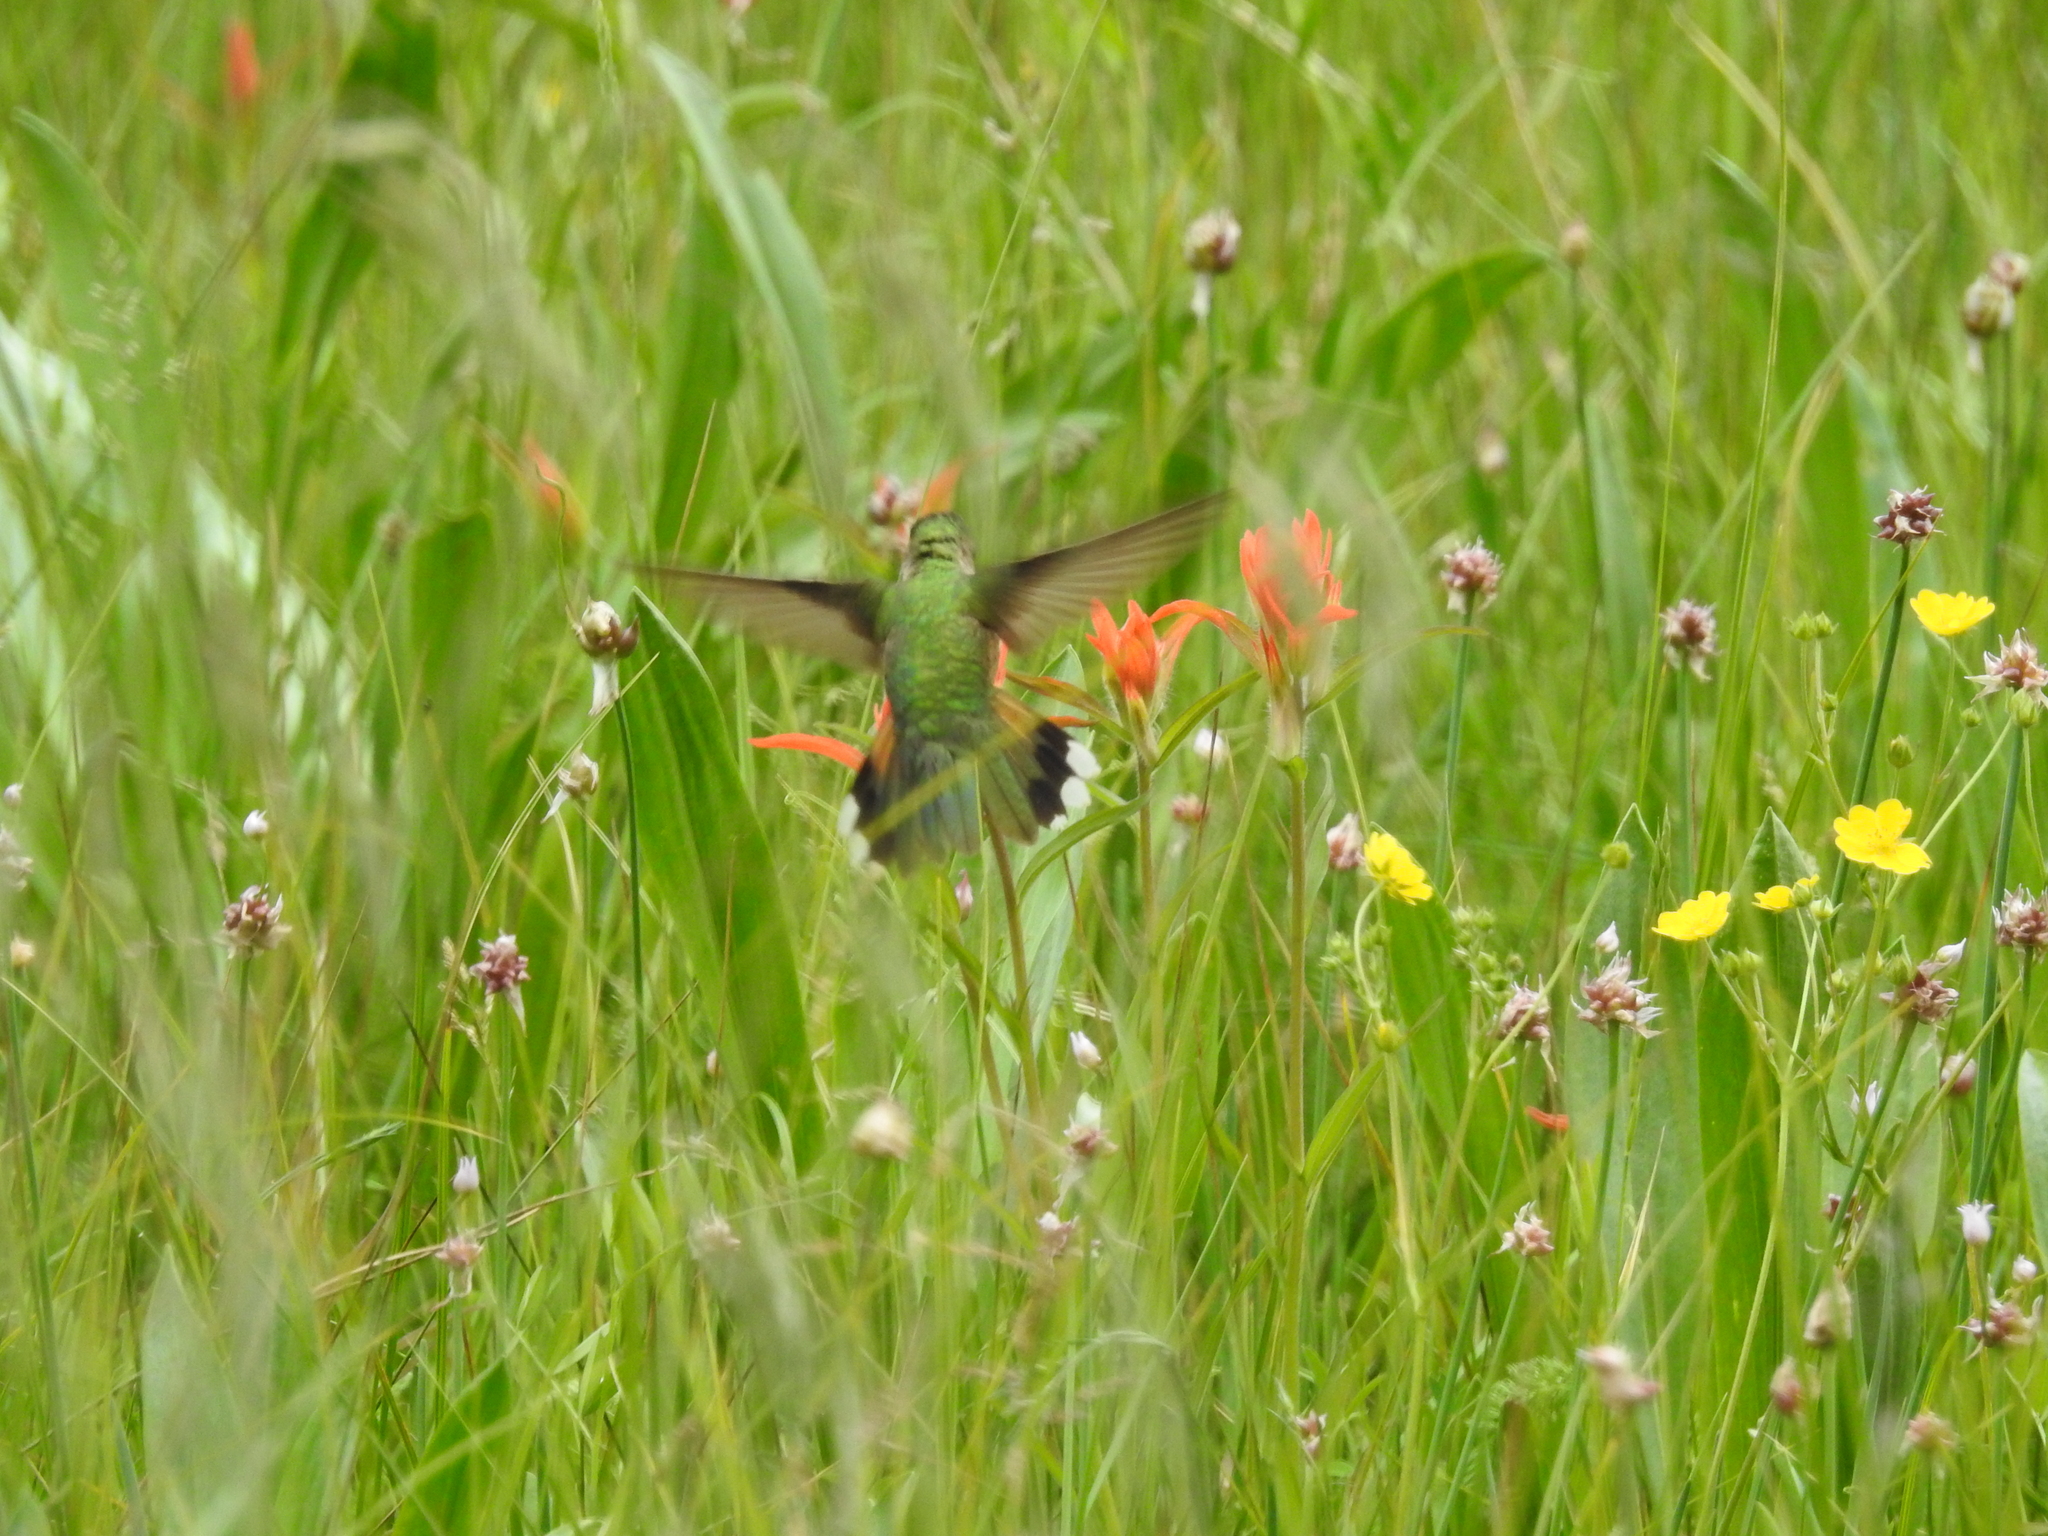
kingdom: Animalia
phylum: Chordata
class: Aves
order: Apodiformes
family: Trochilidae
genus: Selasphorus
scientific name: Selasphorus platycercus
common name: Broad-tailed hummingbird
